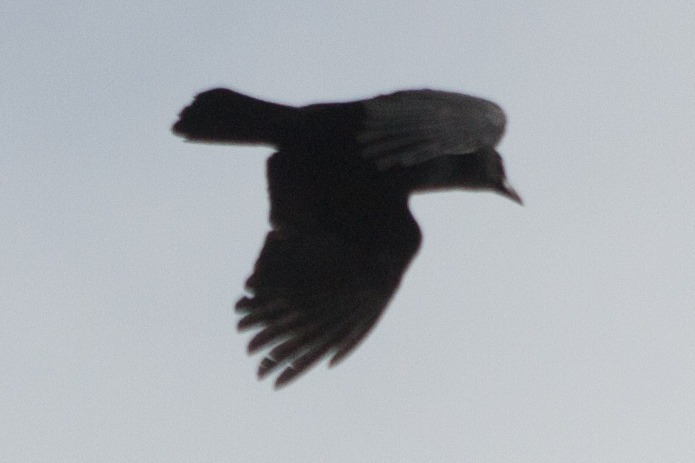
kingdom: Animalia
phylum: Chordata
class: Aves
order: Passeriformes
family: Corvidae
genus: Corvus
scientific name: Corvus brachyrhynchos
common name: American crow
